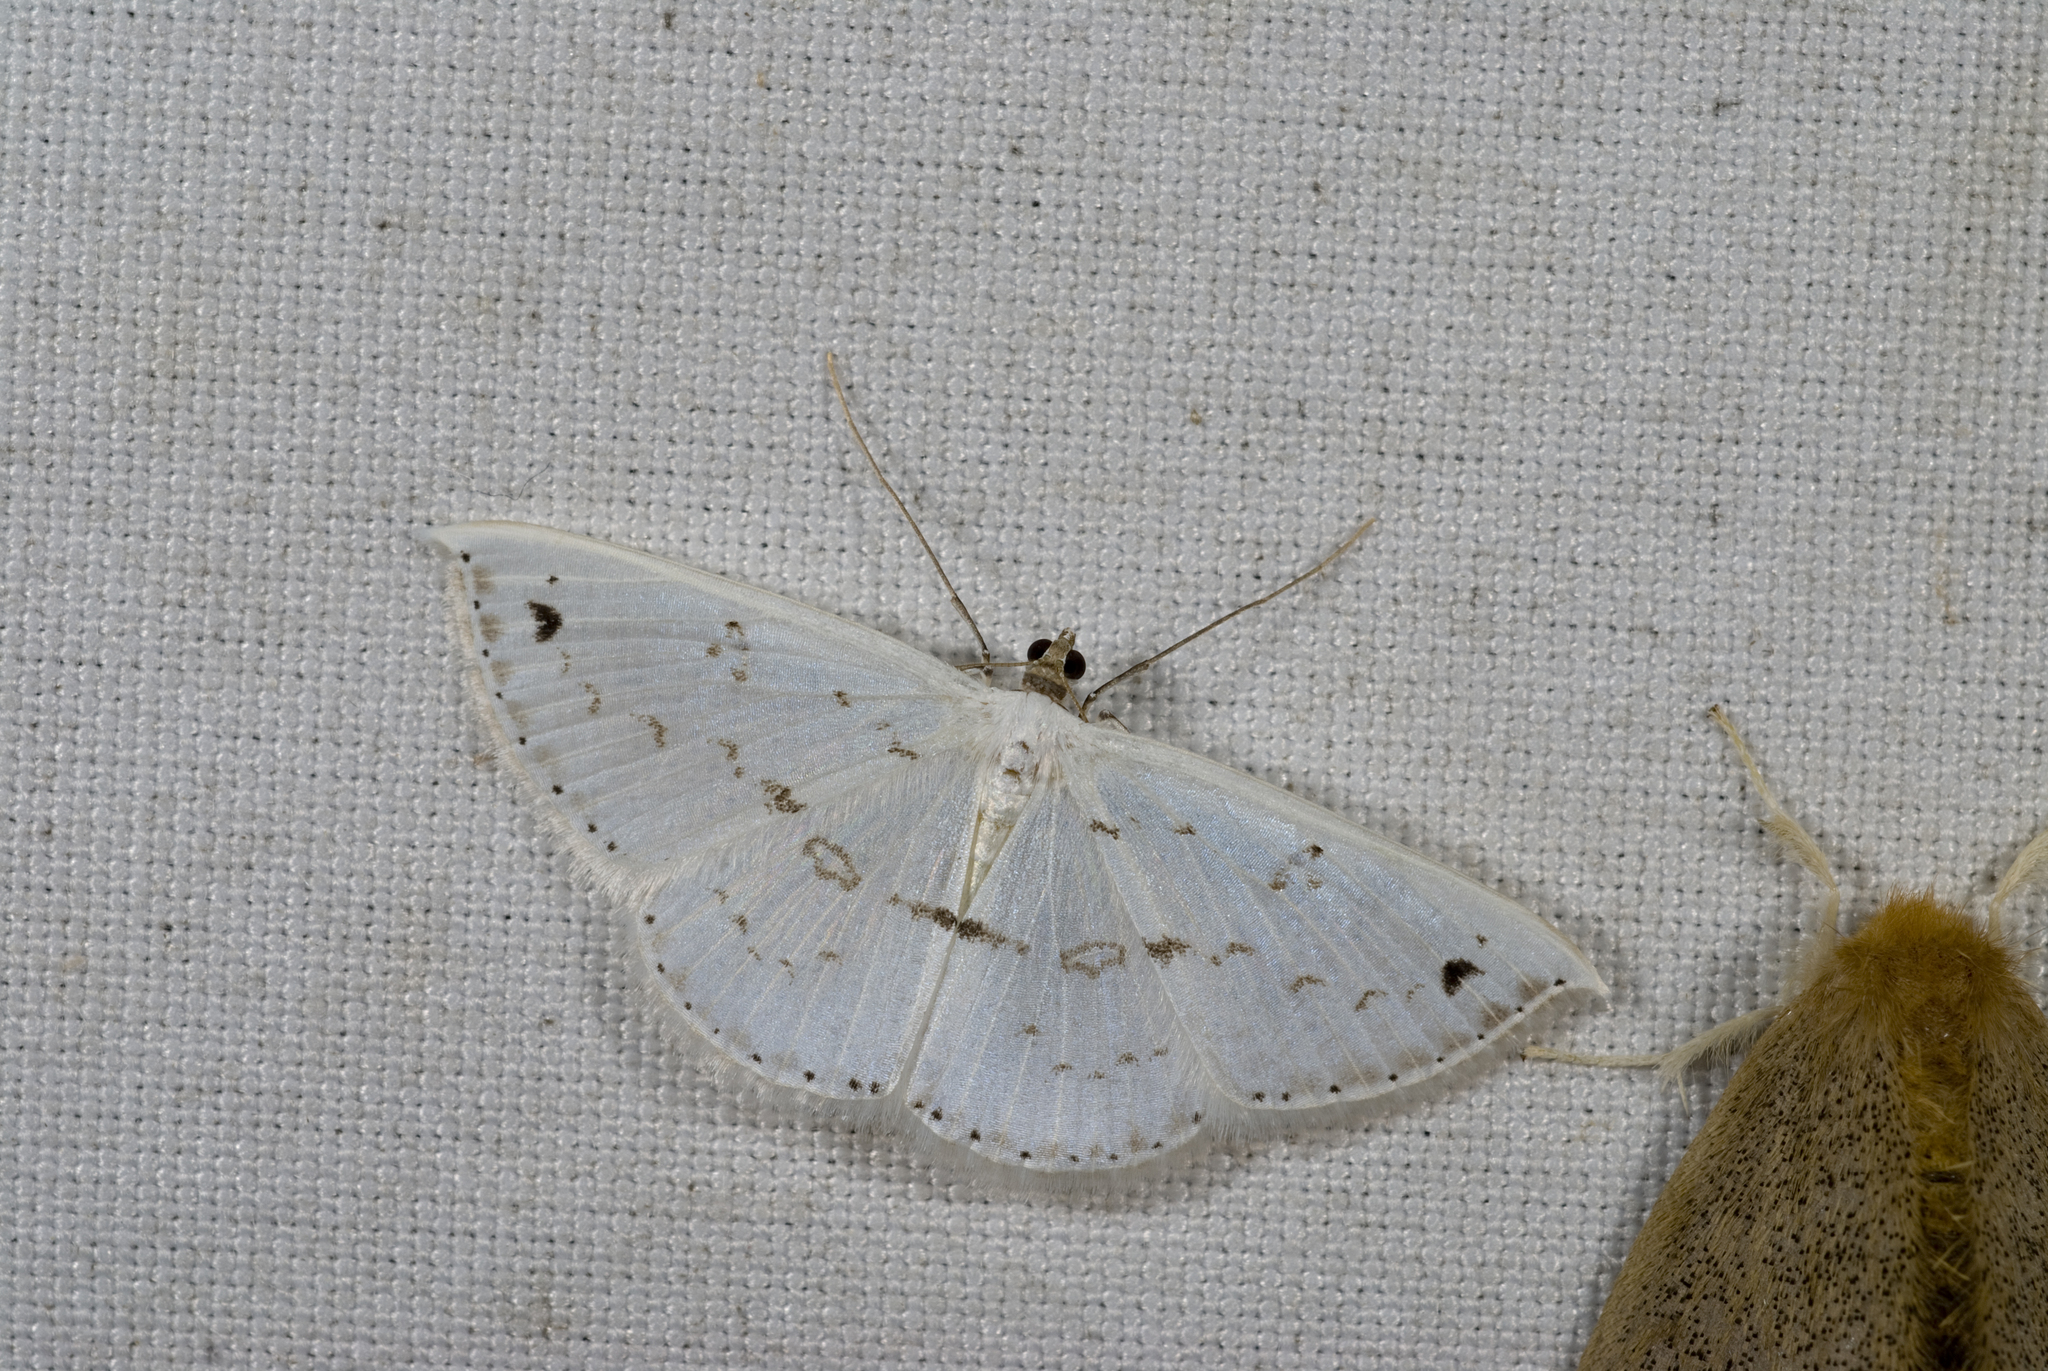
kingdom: Animalia
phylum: Arthropoda
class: Insecta
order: Lepidoptera
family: Geometridae
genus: Derambila
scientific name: Derambila dentifera
